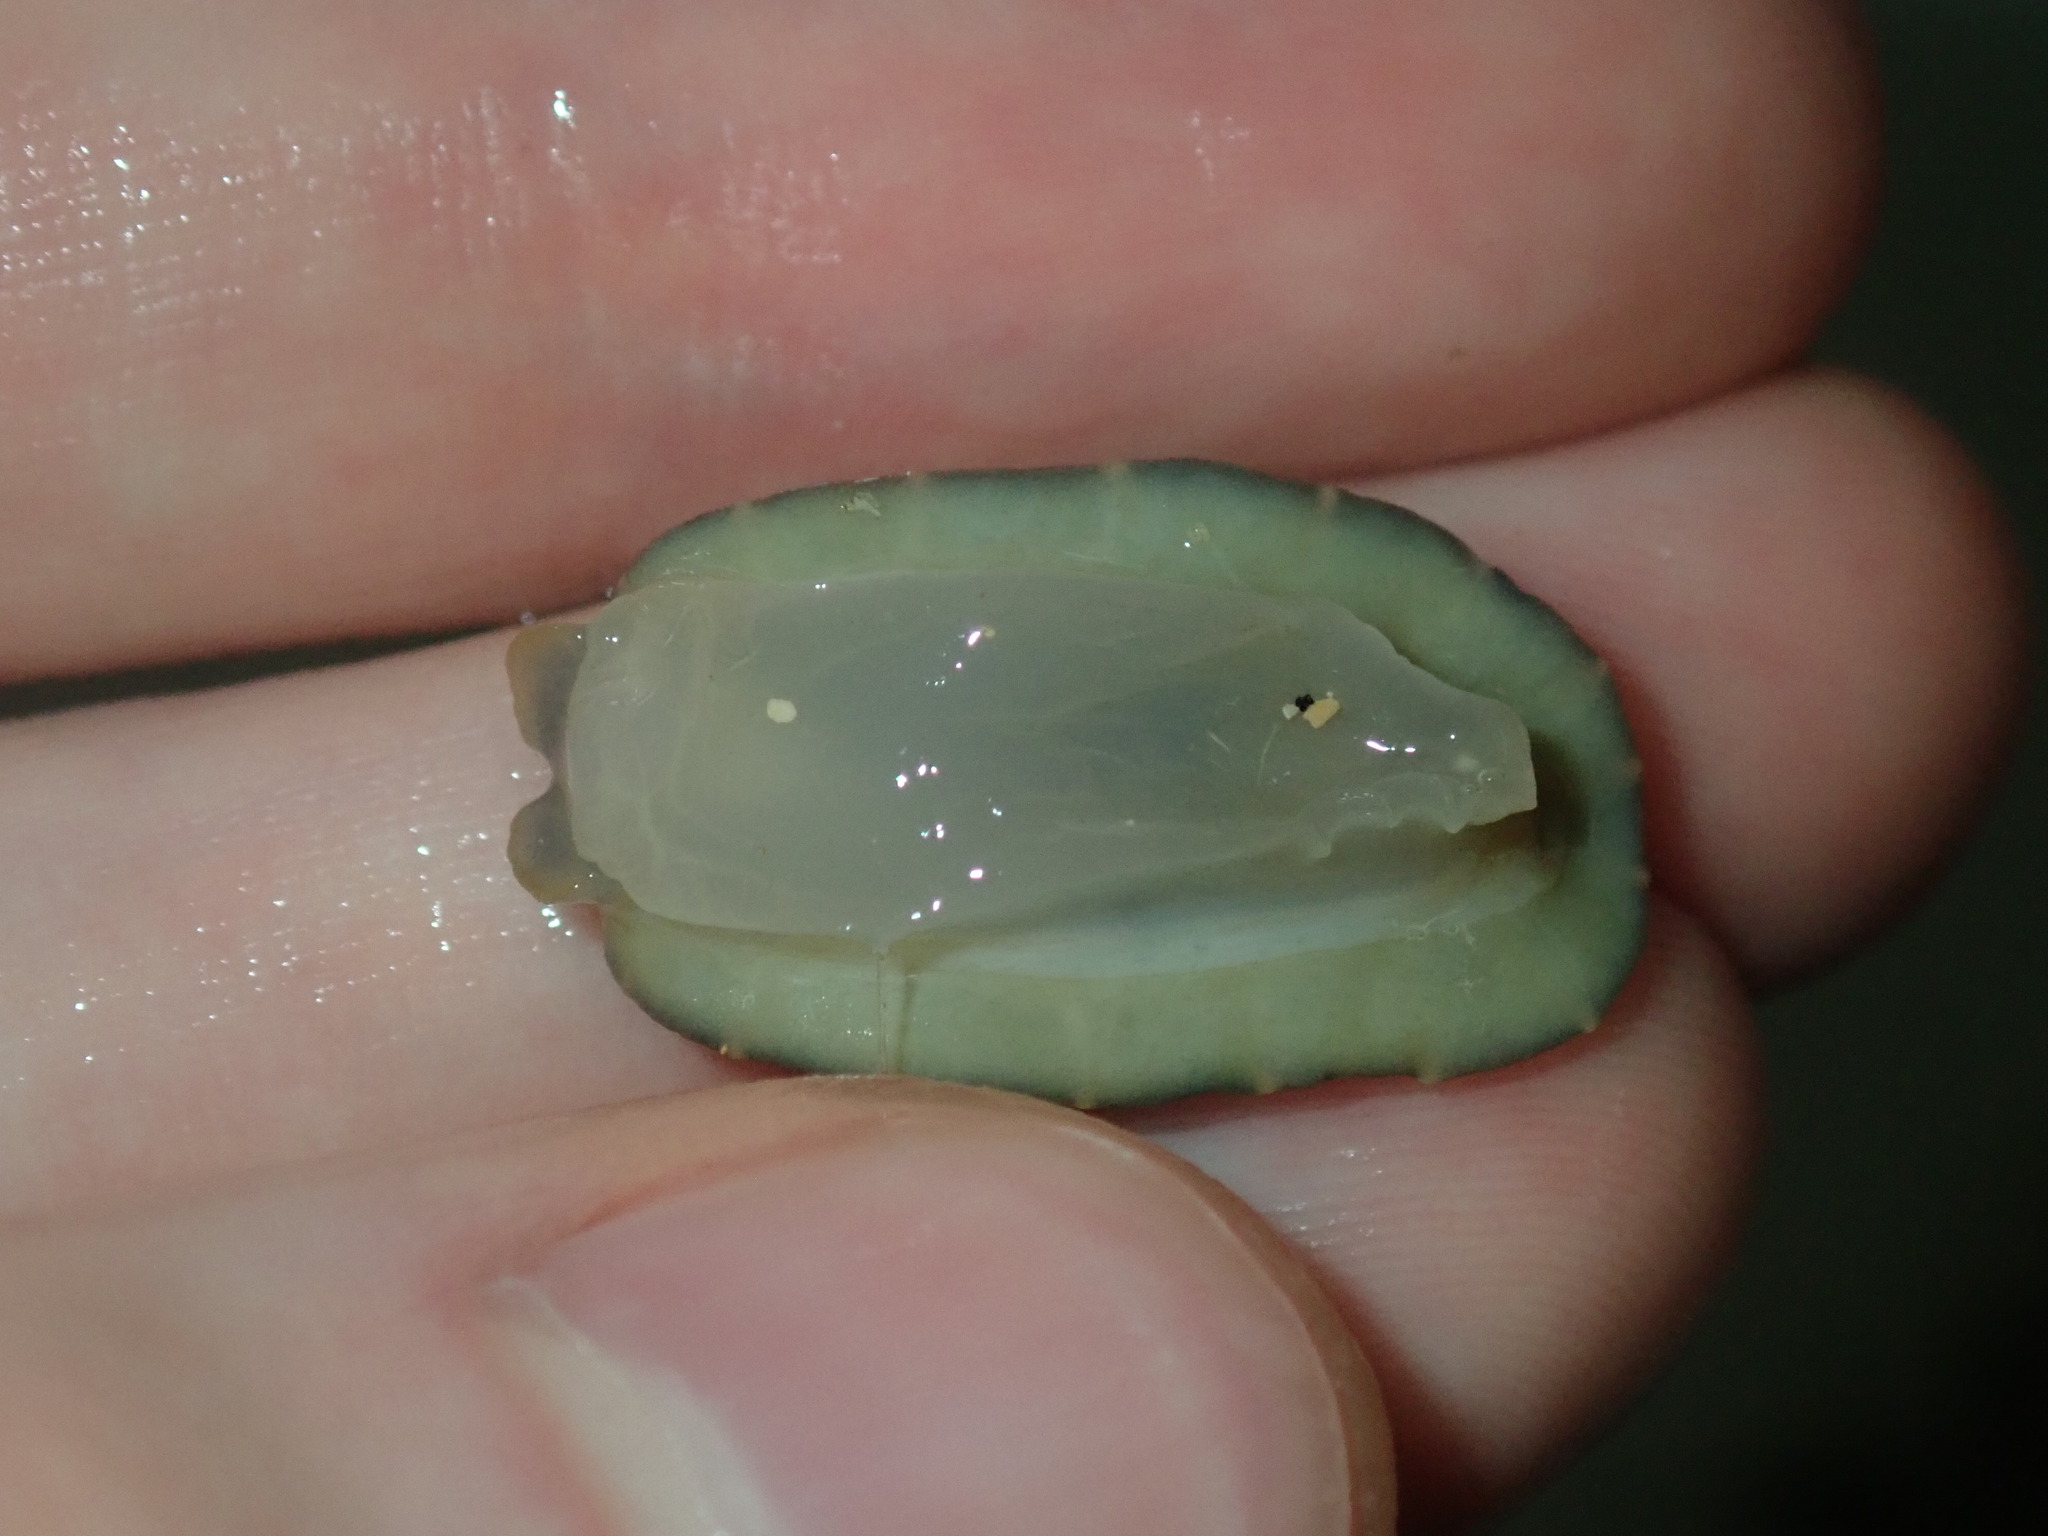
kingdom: Animalia
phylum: Mollusca
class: Gastropoda
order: Systellommatophora
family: Onchidiidae
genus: Onchidella
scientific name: Onchidella nigricans
